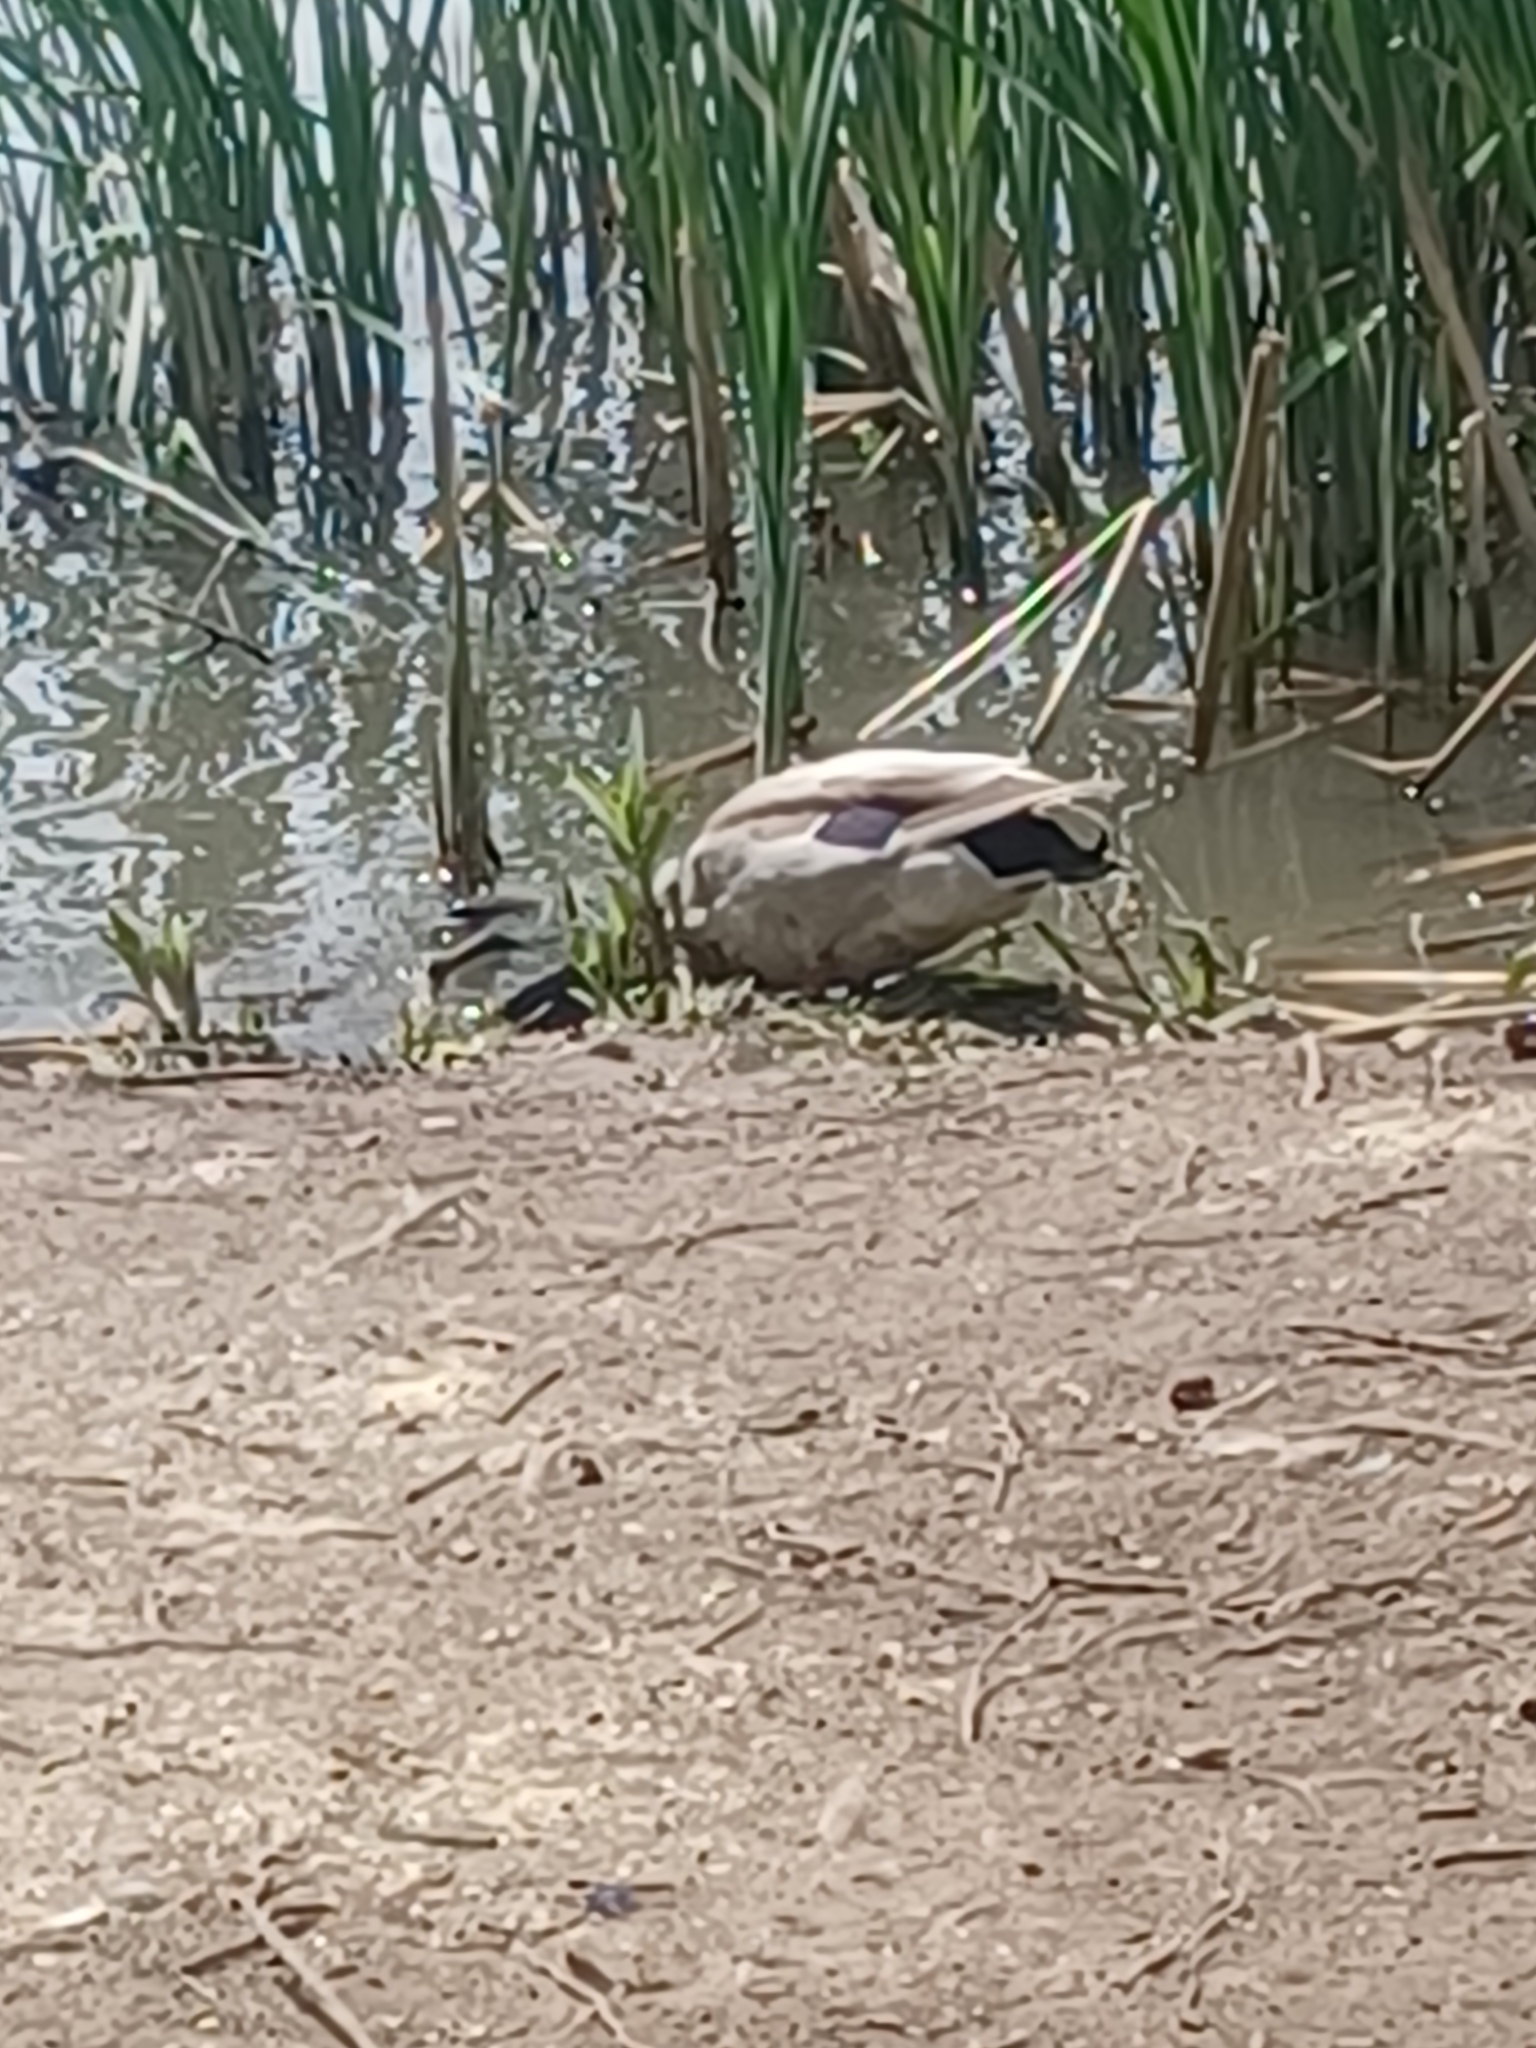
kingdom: Animalia
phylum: Chordata
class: Aves
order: Anseriformes
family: Anatidae
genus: Anas
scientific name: Anas platyrhynchos
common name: Mallard
